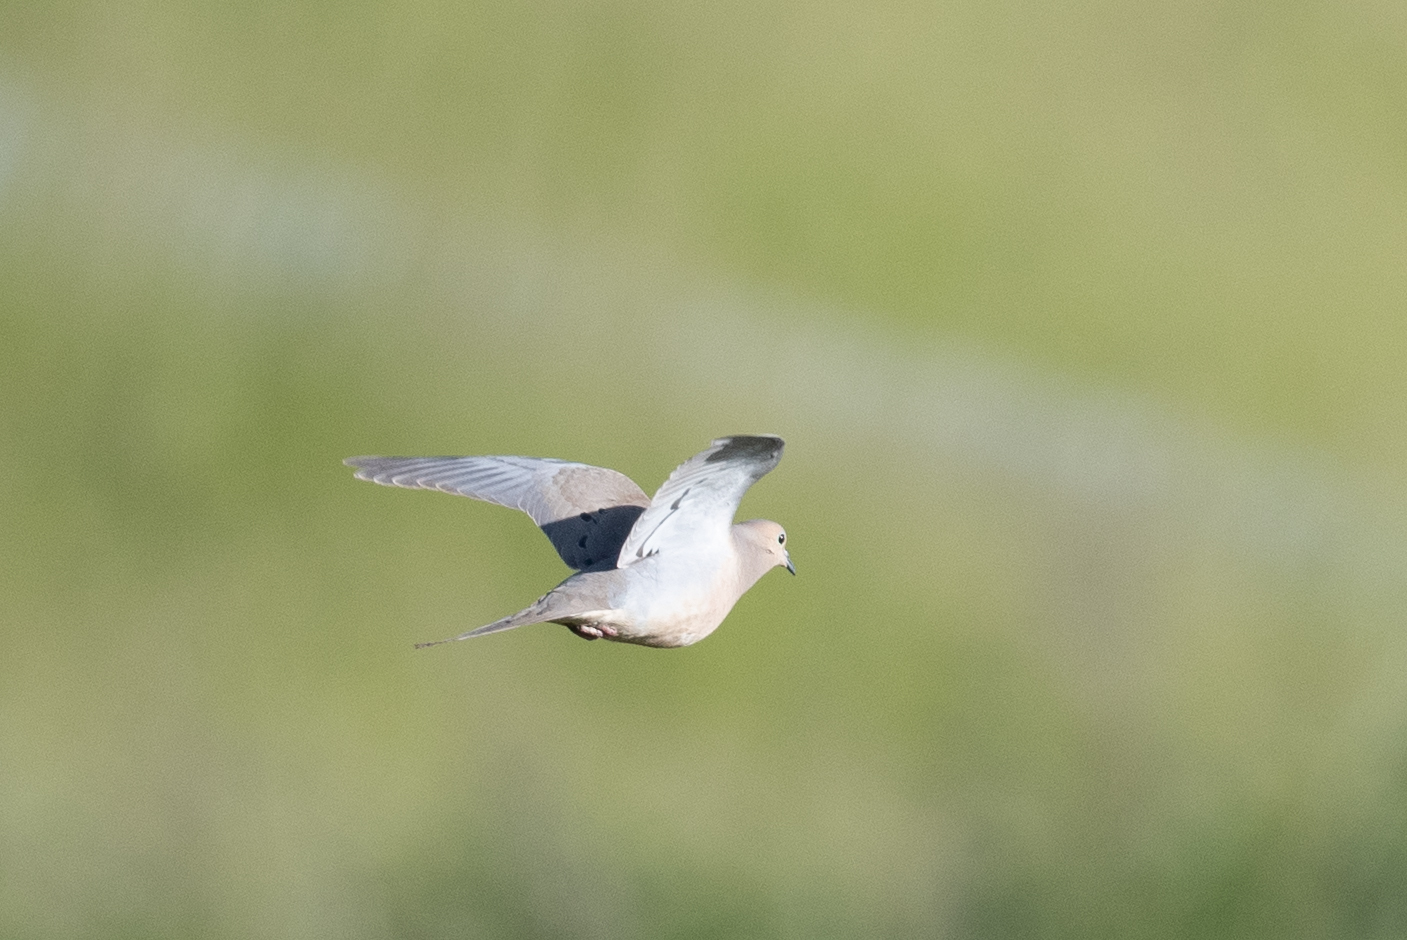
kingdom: Animalia
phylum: Chordata
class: Aves
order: Columbiformes
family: Columbidae
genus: Zenaida
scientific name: Zenaida macroura
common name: Mourning dove
